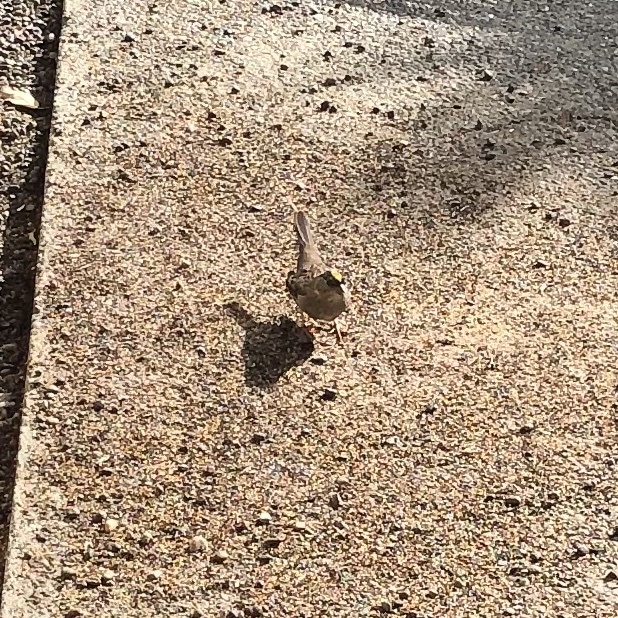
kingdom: Animalia
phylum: Chordata
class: Aves
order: Passeriformes
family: Passerellidae
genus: Zonotrichia
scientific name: Zonotrichia atricapilla
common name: Golden-crowned sparrow
